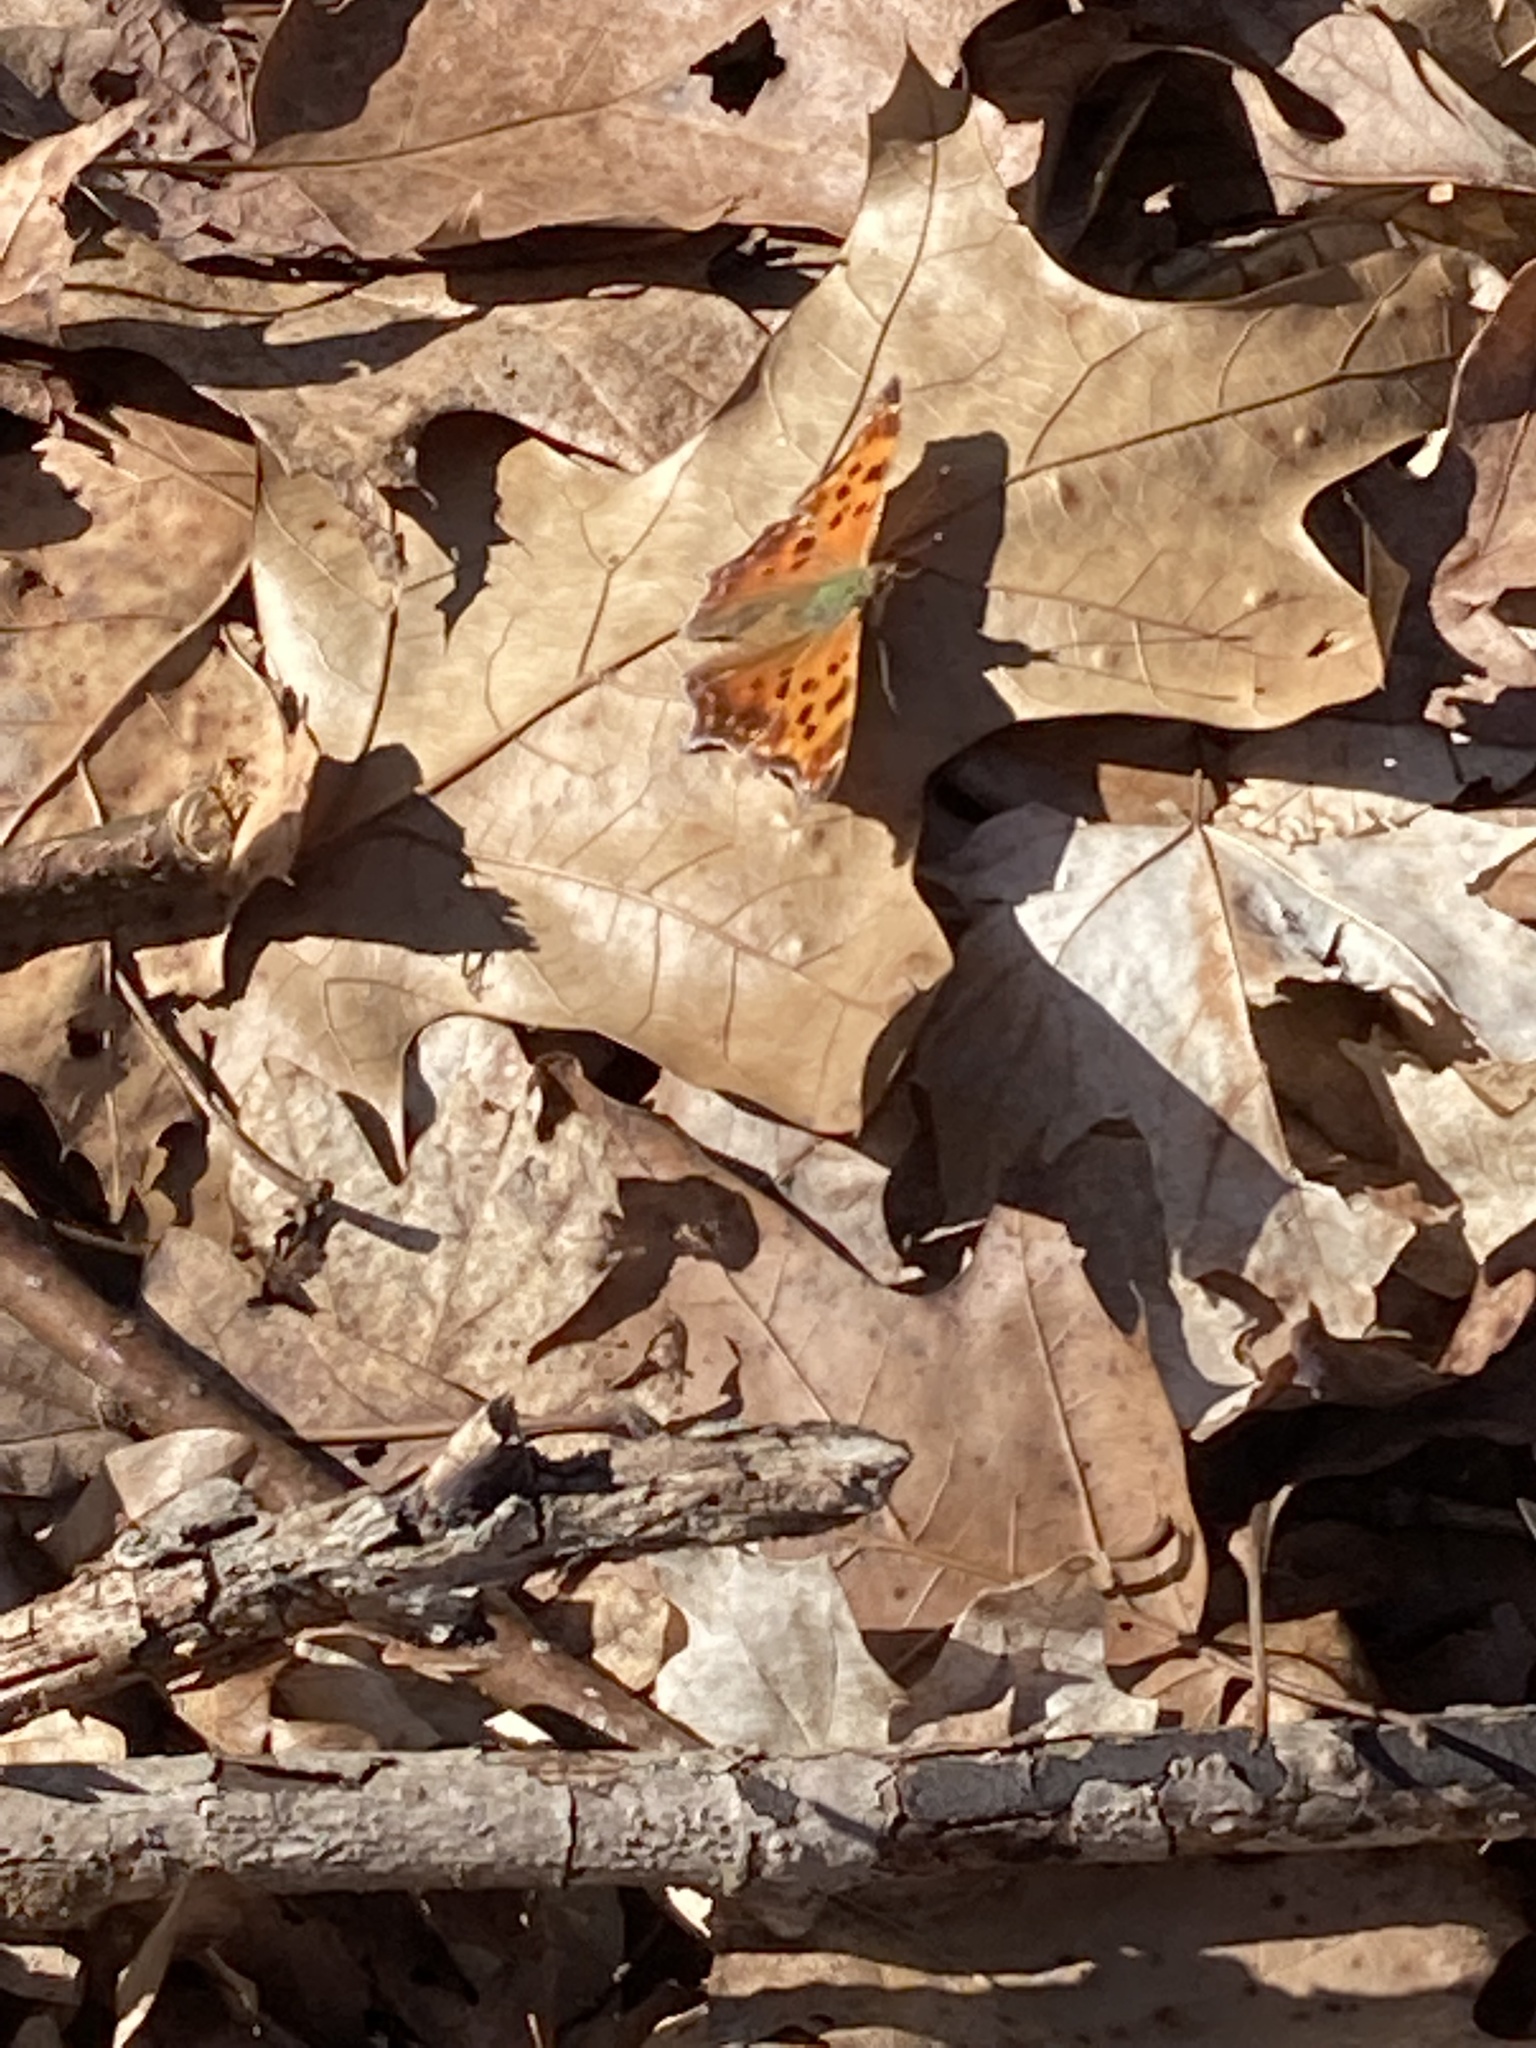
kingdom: Animalia
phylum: Arthropoda
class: Insecta
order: Lepidoptera
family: Nymphalidae
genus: Polygonia
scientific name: Polygonia comma
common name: Eastern comma
